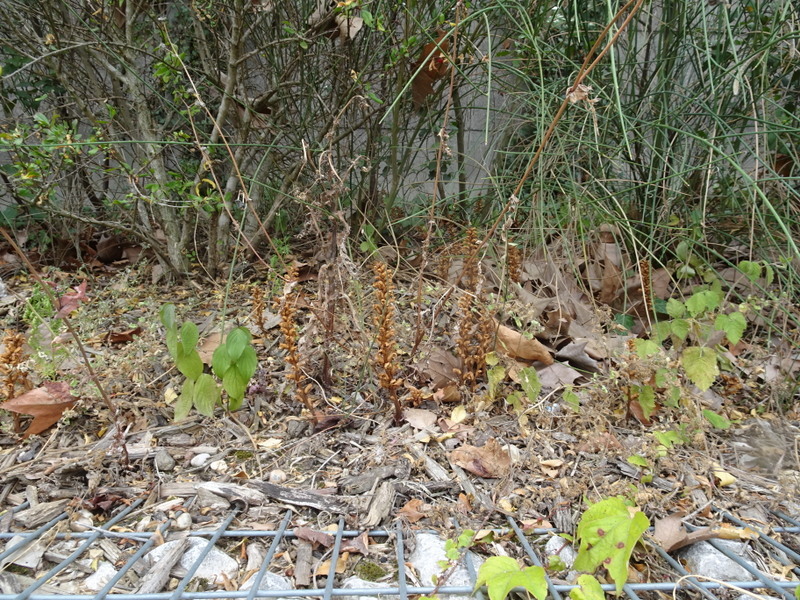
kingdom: Plantae
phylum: Tracheophyta
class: Magnoliopsida
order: Lamiales
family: Orobanchaceae
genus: Orobanche
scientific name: Orobanche hederae
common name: Ivy broomrape
